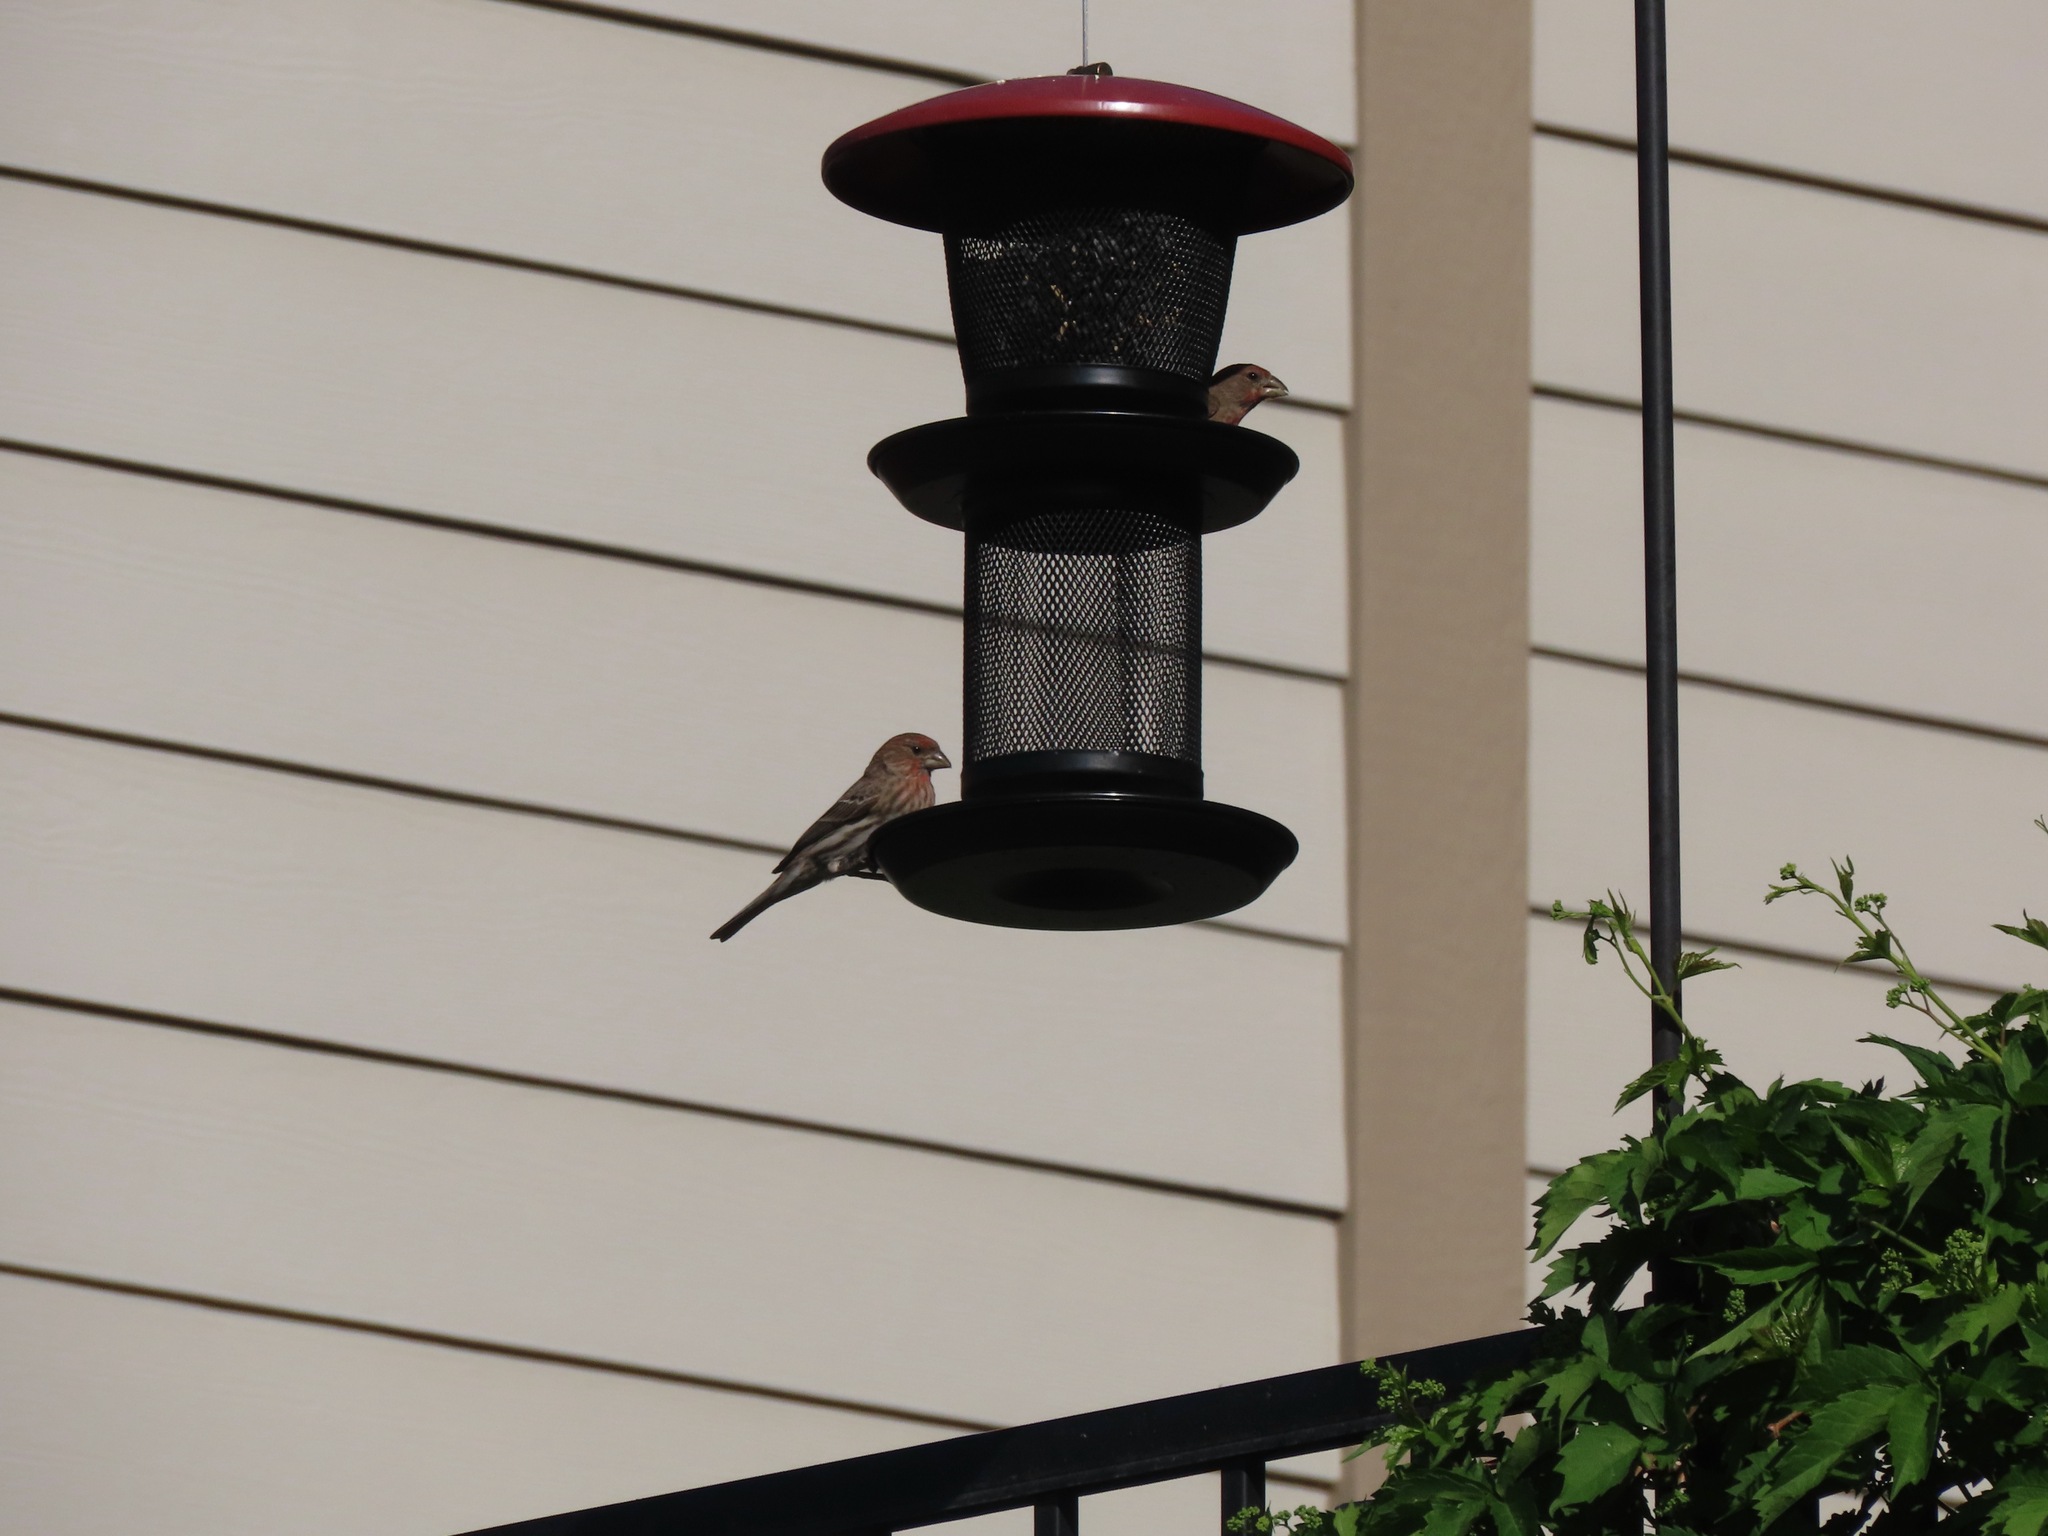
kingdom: Animalia
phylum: Chordata
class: Aves
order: Passeriformes
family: Fringillidae
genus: Haemorhous
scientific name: Haemorhous mexicanus
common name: House finch
